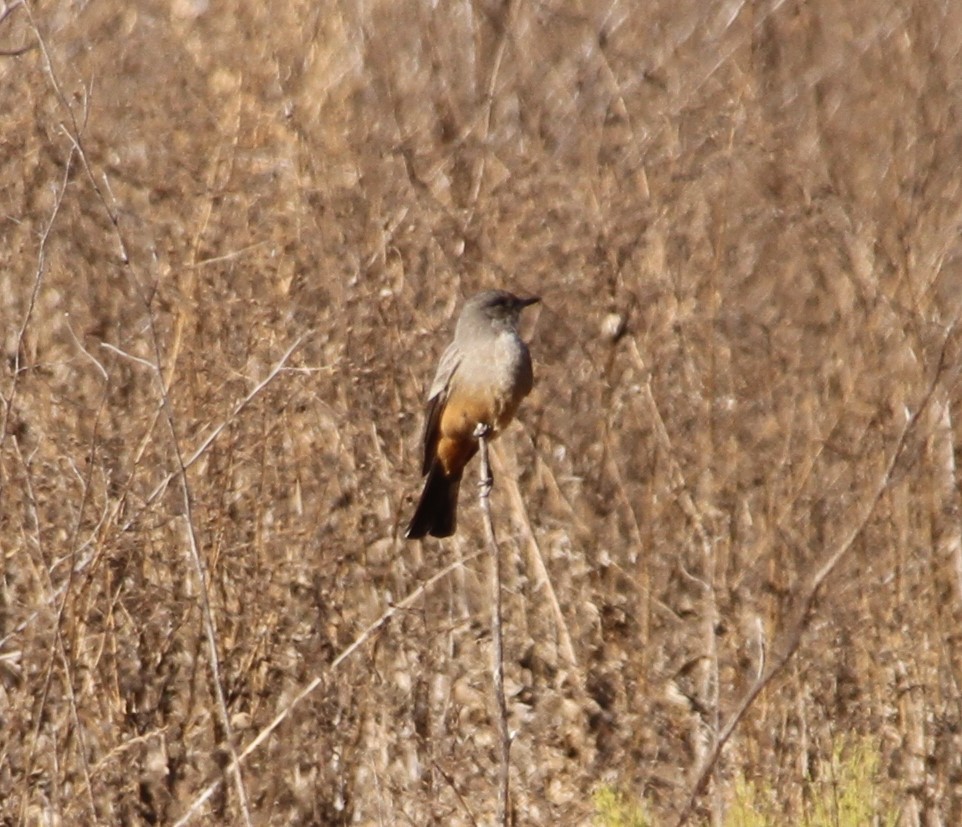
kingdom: Animalia
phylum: Chordata
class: Aves
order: Passeriformes
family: Tyrannidae
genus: Sayornis
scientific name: Sayornis saya
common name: Say's phoebe
